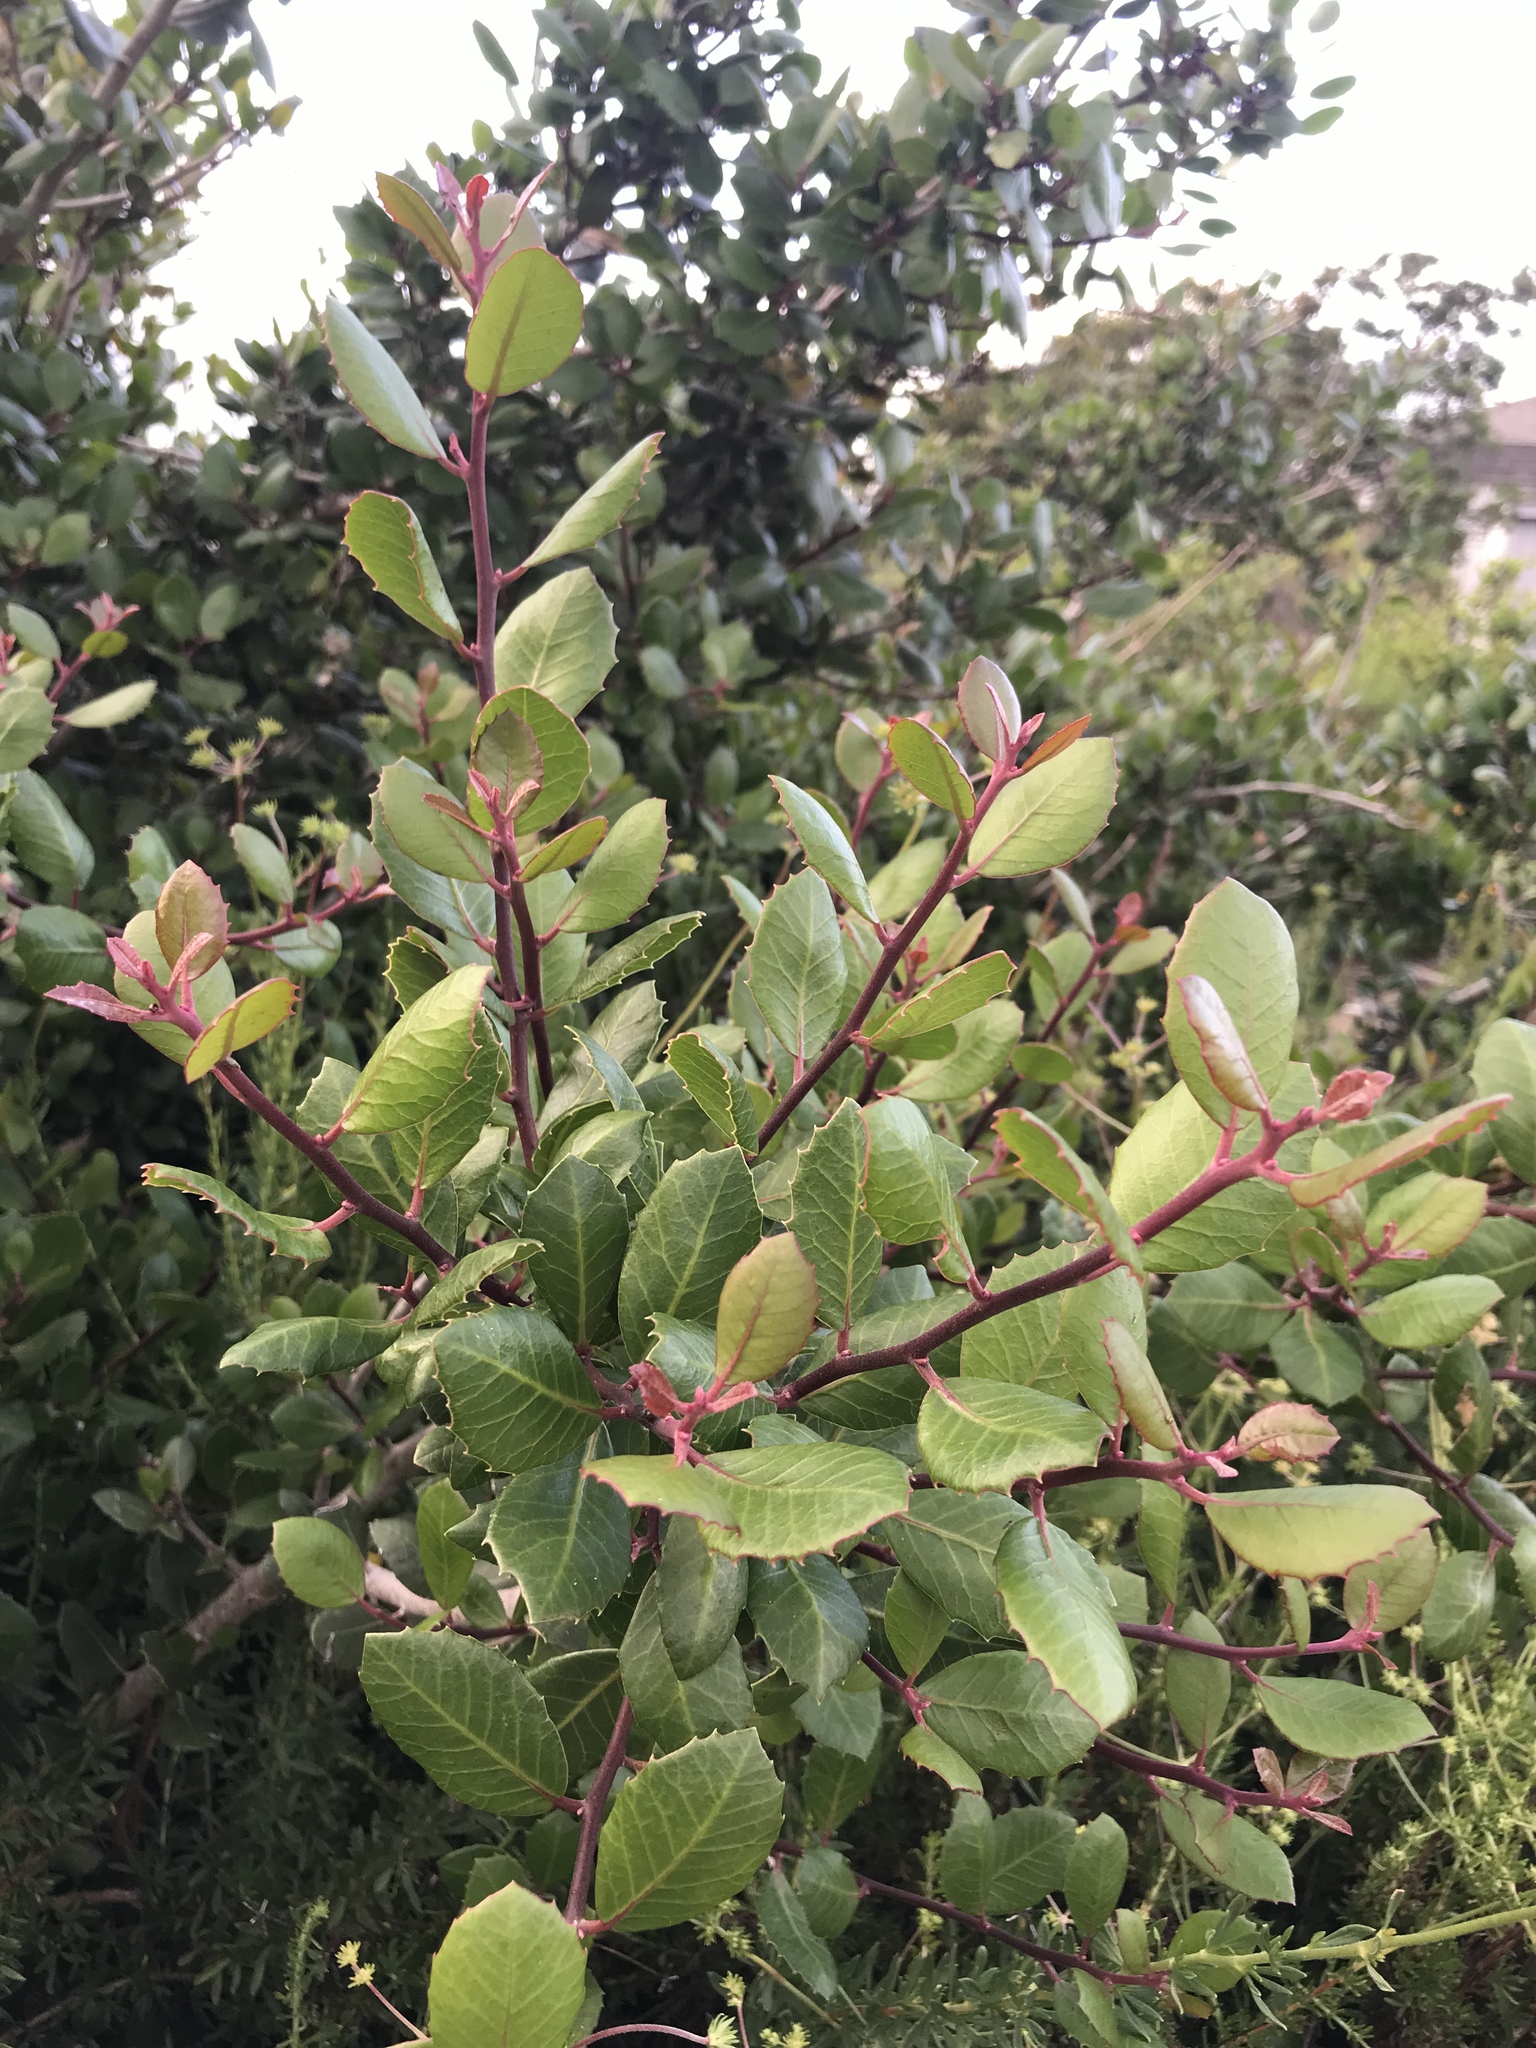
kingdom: Plantae
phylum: Tracheophyta
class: Magnoliopsida
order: Sapindales
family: Anacardiaceae
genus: Rhus
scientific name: Rhus integrifolia
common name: Lemonade sumac
